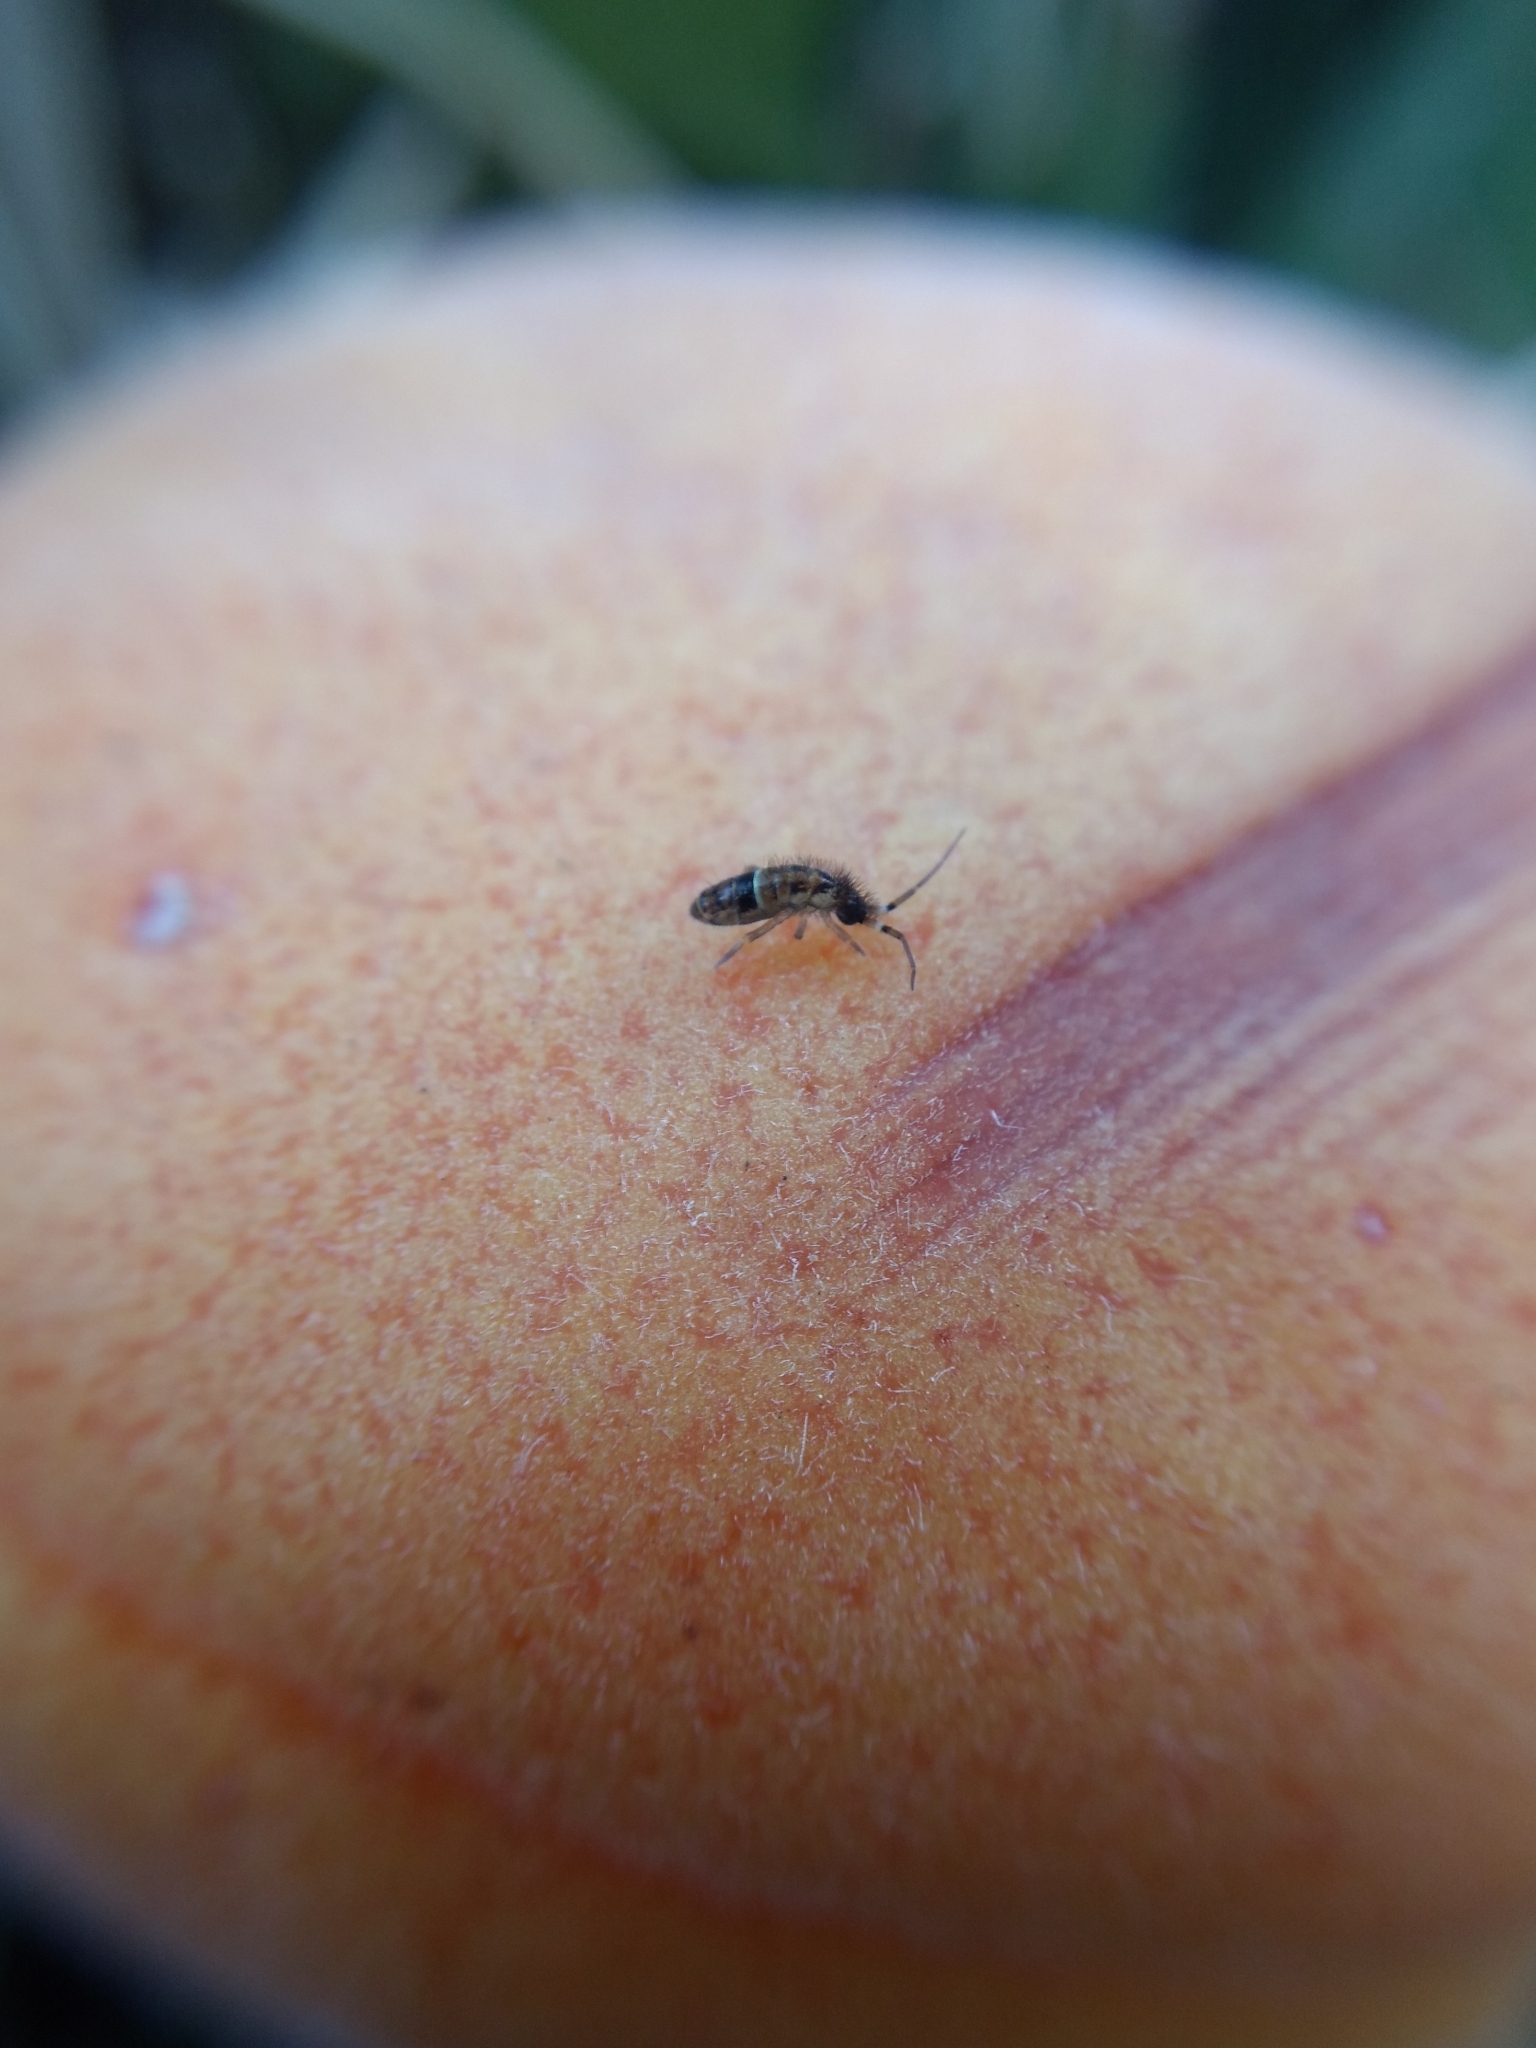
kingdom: Animalia
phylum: Arthropoda
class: Collembola
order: Entomobryomorpha
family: Orchesellidae
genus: Orchesella
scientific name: Orchesella cincta
